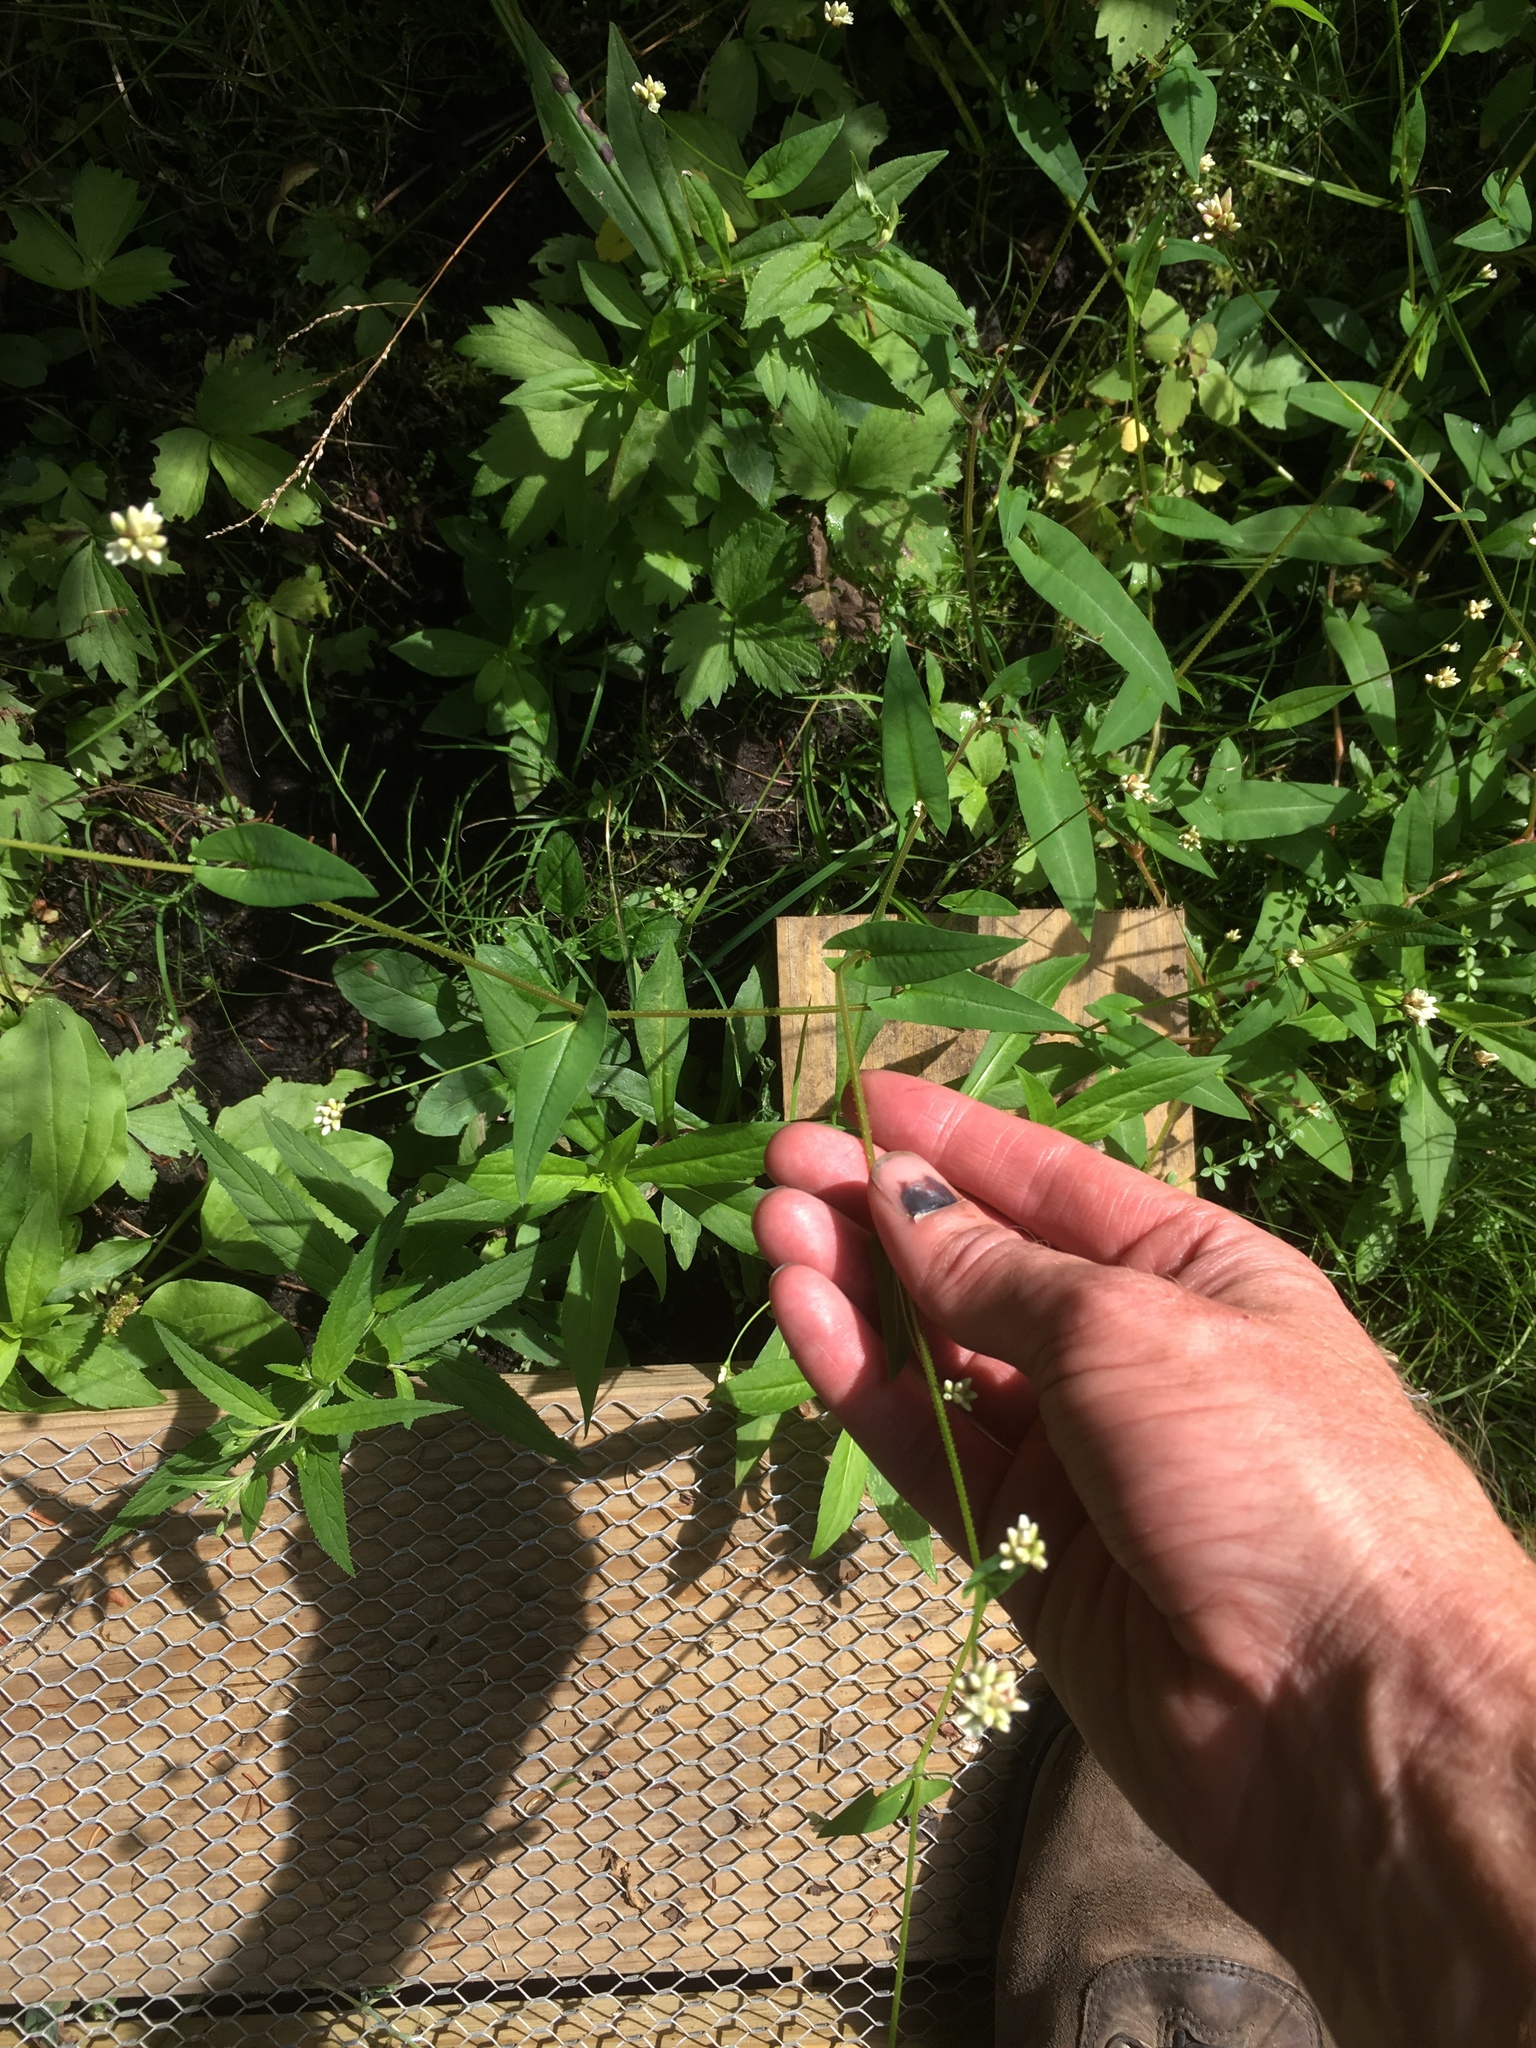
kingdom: Plantae
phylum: Tracheophyta
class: Magnoliopsida
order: Caryophyllales
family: Polygonaceae
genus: Persicaria
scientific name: Persicaria sagittata
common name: American tearthumb
